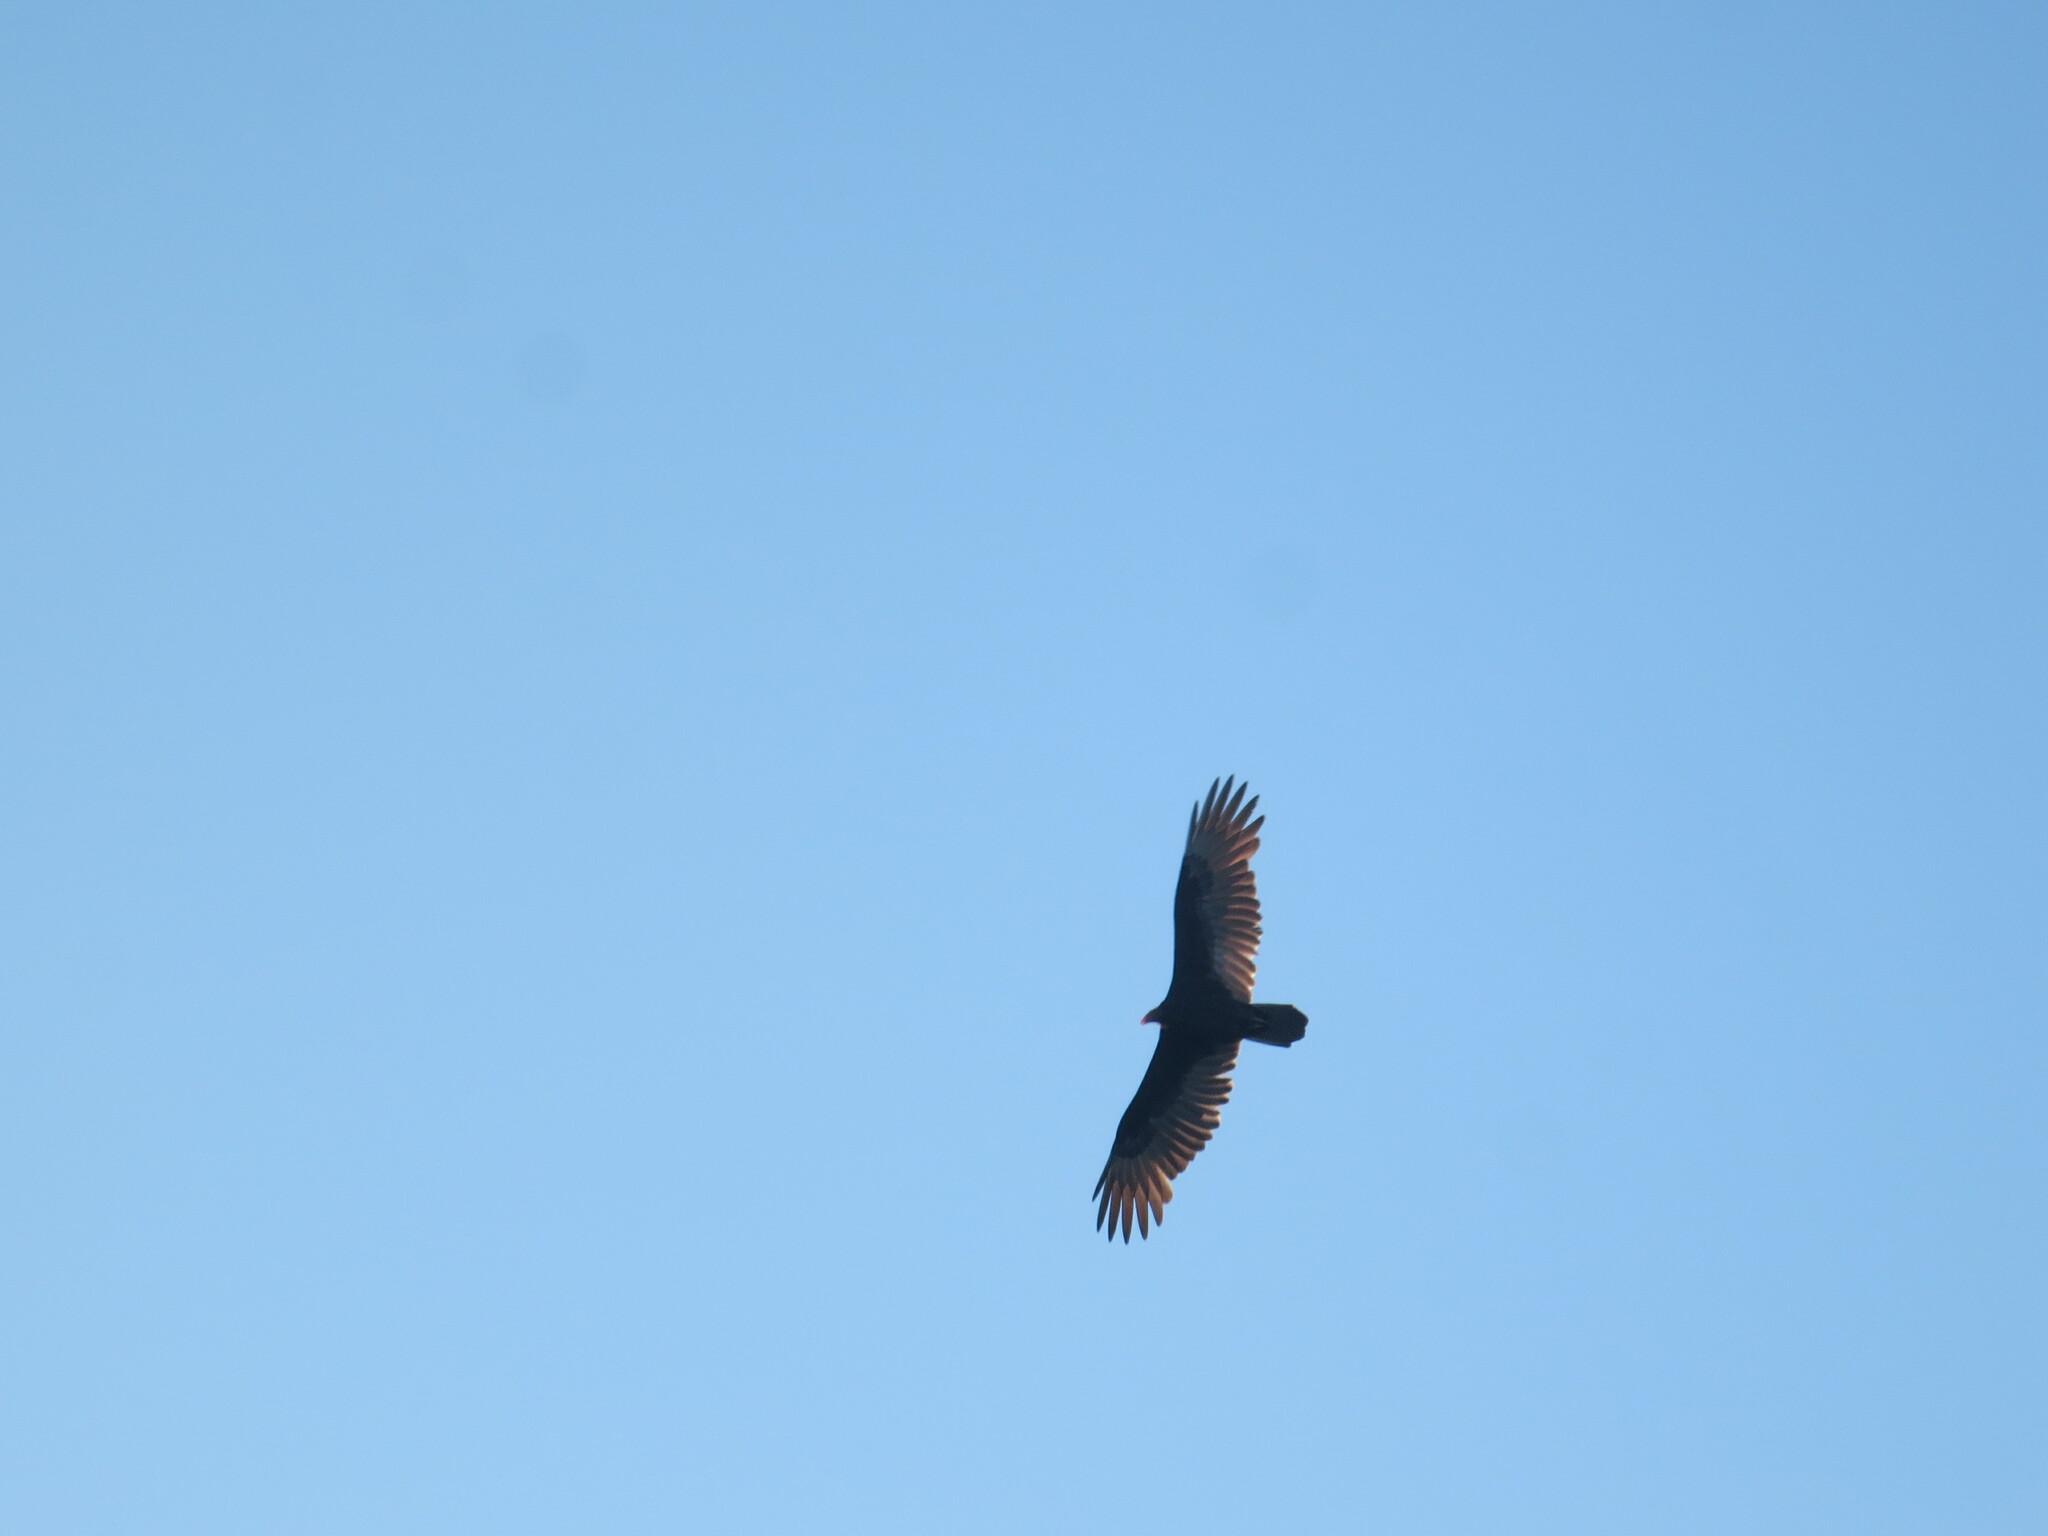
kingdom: Animalia
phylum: Chordata
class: Aves
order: Accipitriformes
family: Cathartidae
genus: Cathartes
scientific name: Cathartes aura
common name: Turkey vulture
